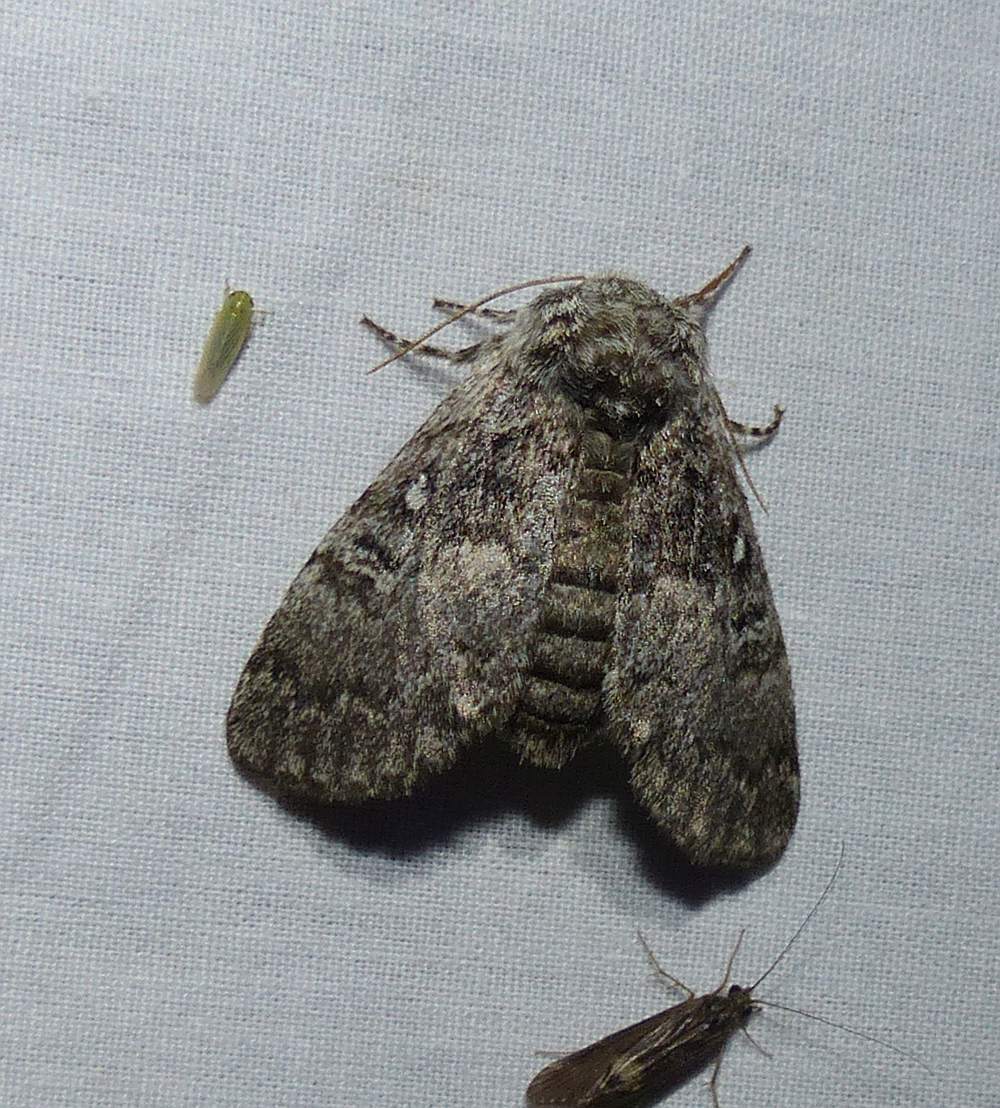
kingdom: Animalia
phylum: Arthropoda
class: Insecta
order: Lepidoptera
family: Noctuidae
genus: Colocasia
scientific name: Colocasia propinquilinea
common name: Close-banded demas
